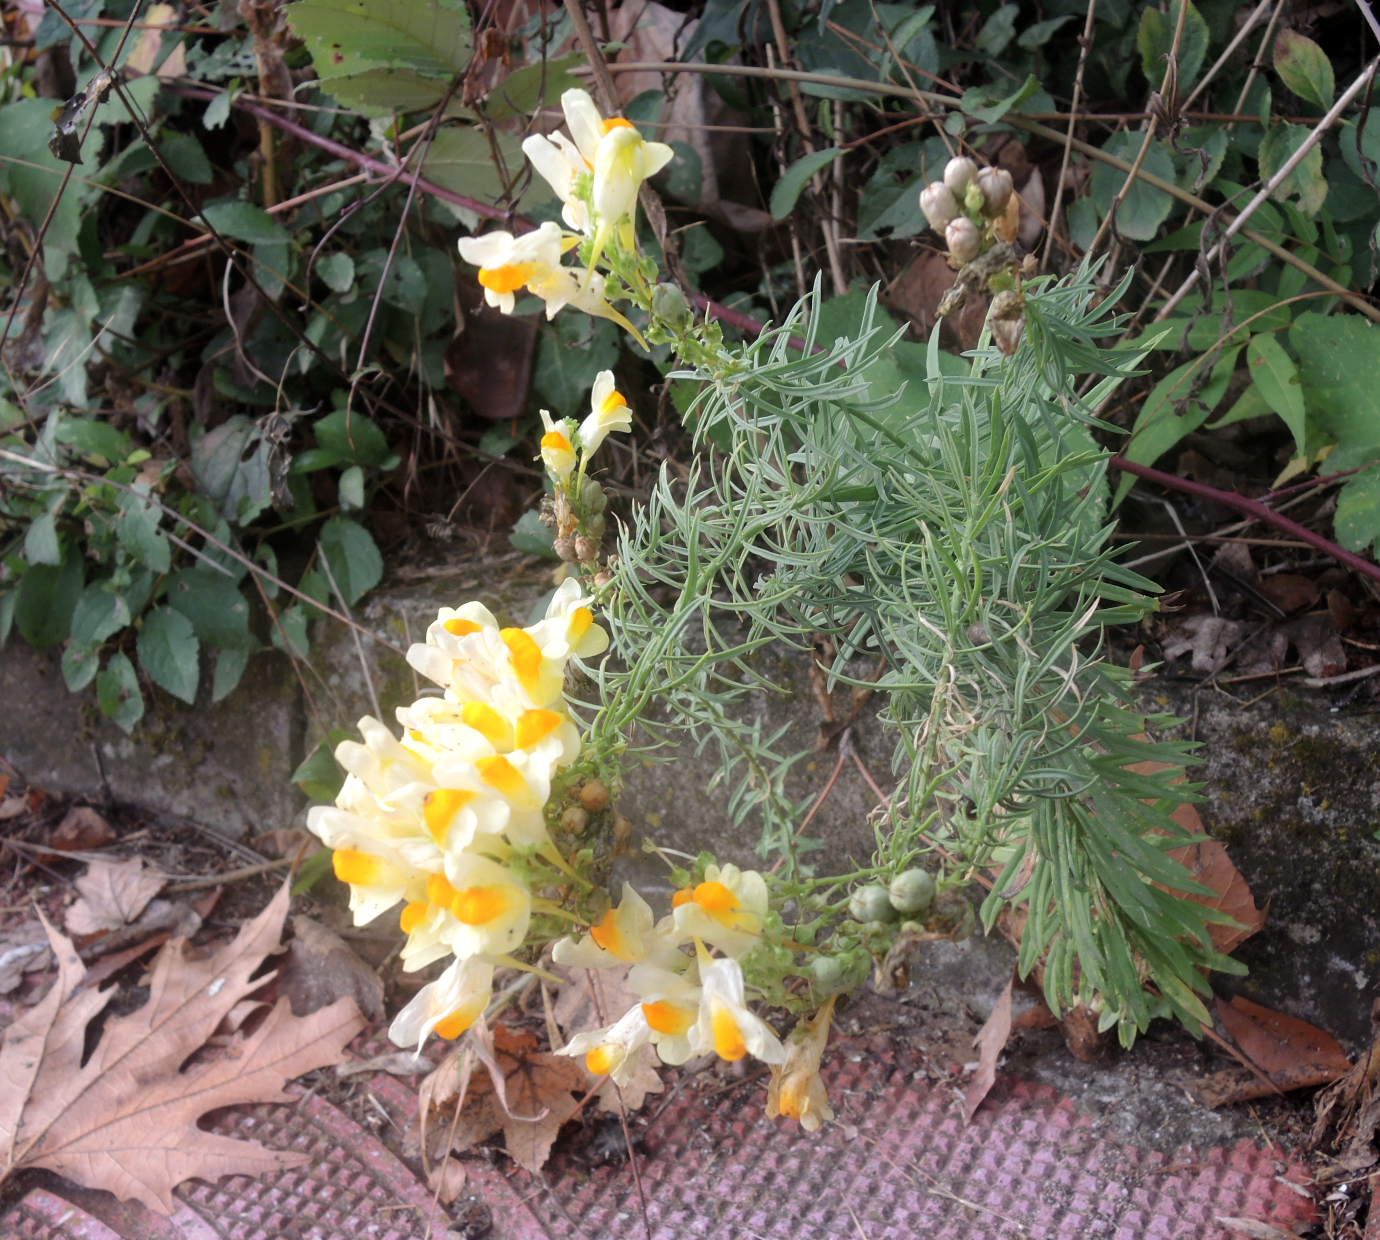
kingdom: Plantae
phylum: Tracheophyta
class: Magnoliopsida
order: Lamiales
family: Plantaginaceae
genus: Linaria
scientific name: Linaria vulgaris
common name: Butter and eggs
